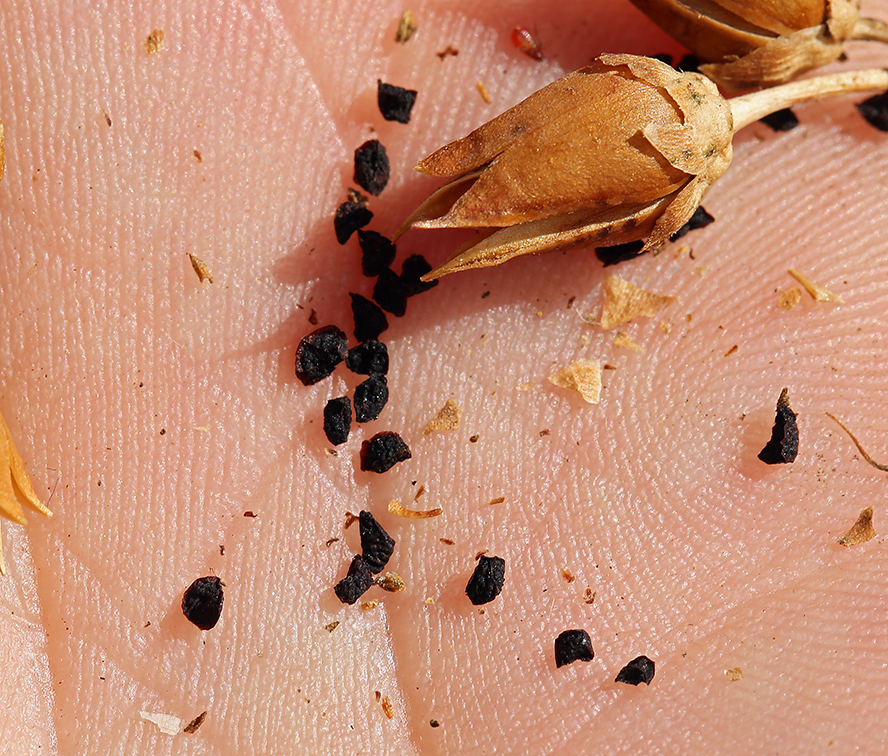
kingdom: Plantae
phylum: Tracheophyta
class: Magnoliopsida
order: Lamiales
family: Plantaginaceae
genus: Penstemon
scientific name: Penstemon floridus
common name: Panamint penstemon
